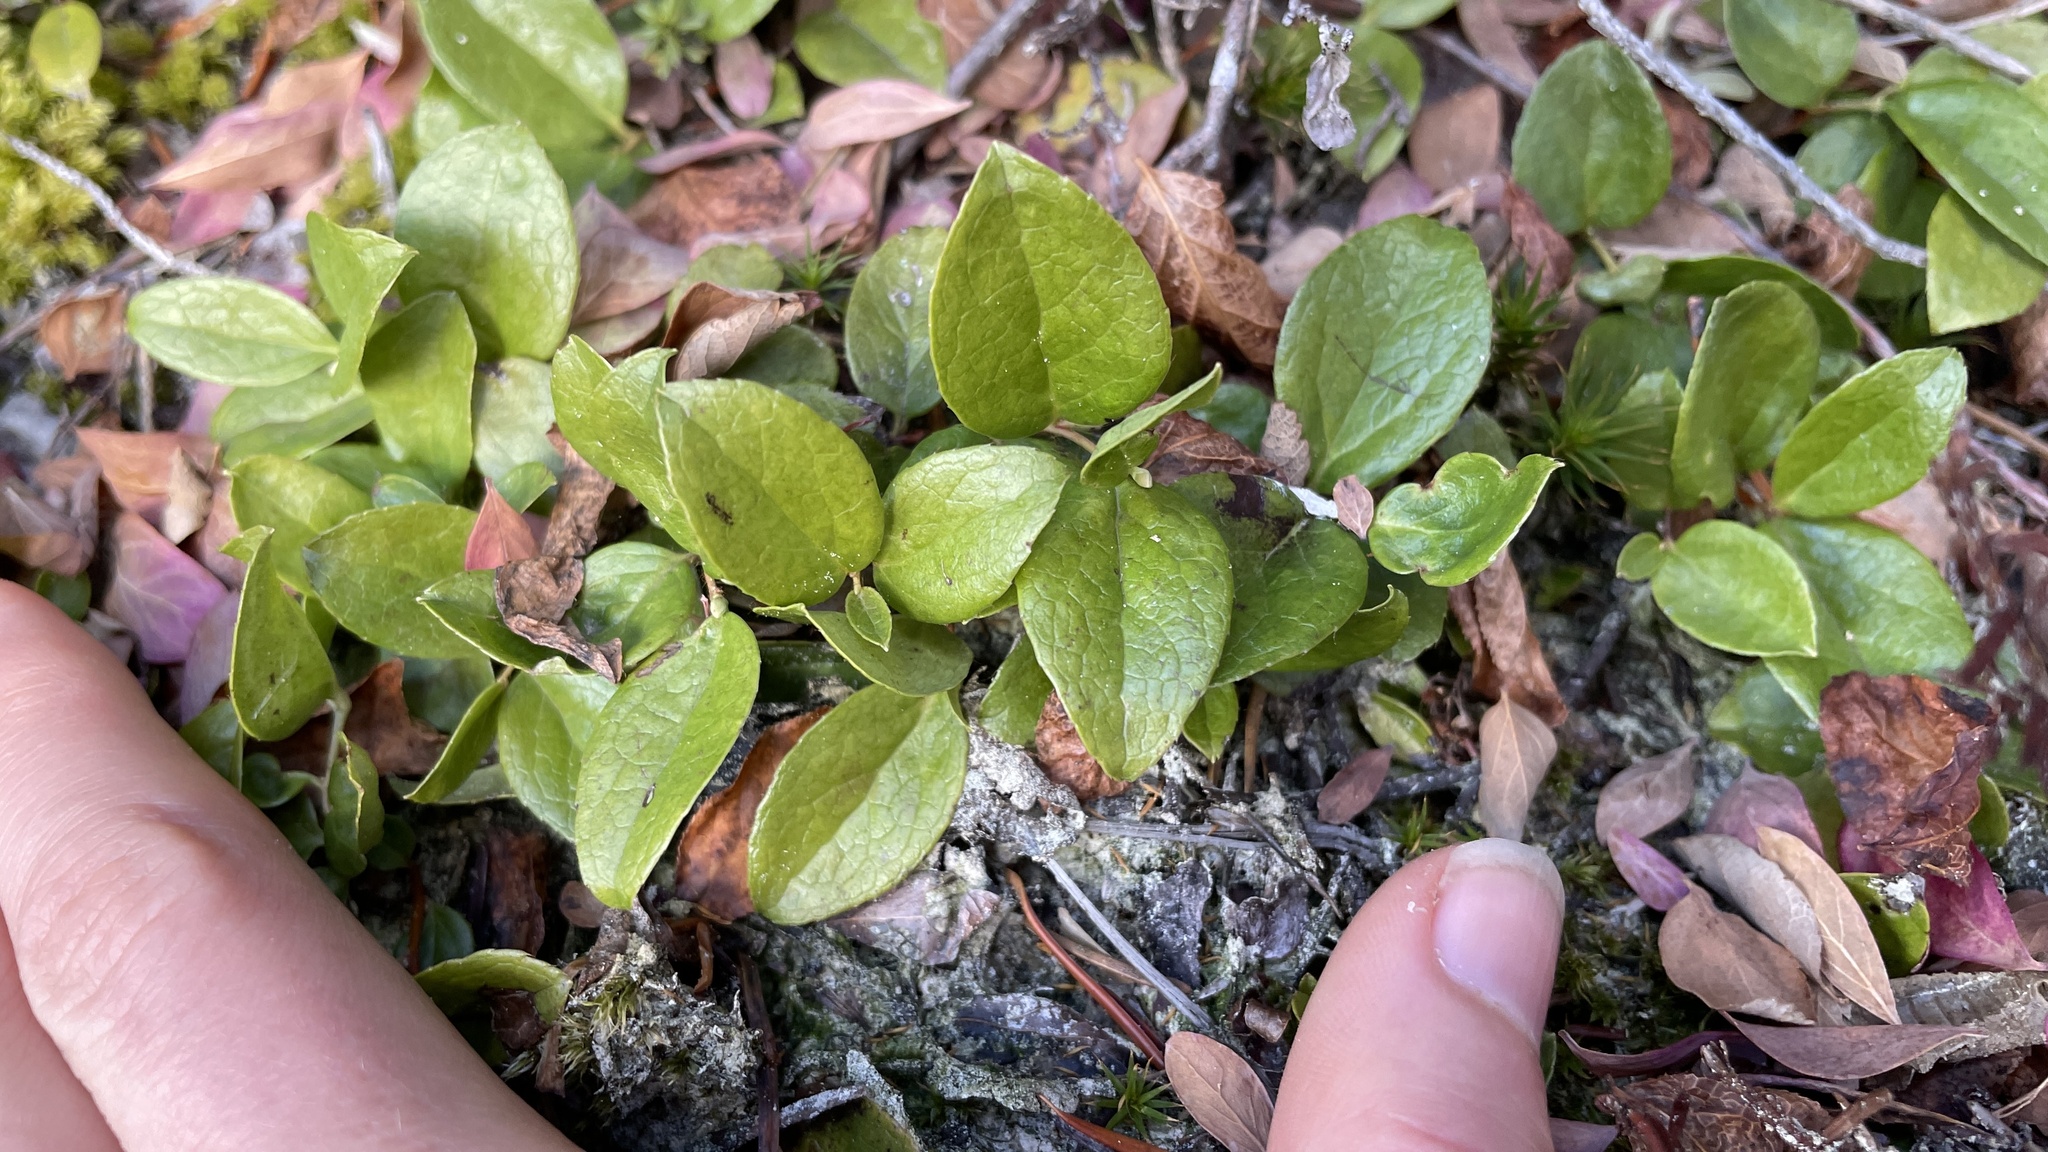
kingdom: Plantae
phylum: Tracheophyta
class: Magnoliopsida
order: Ericales
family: Ericaceae
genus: Gaultheria
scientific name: Gaultheria ovatifolia
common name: Oregon wintergreen
